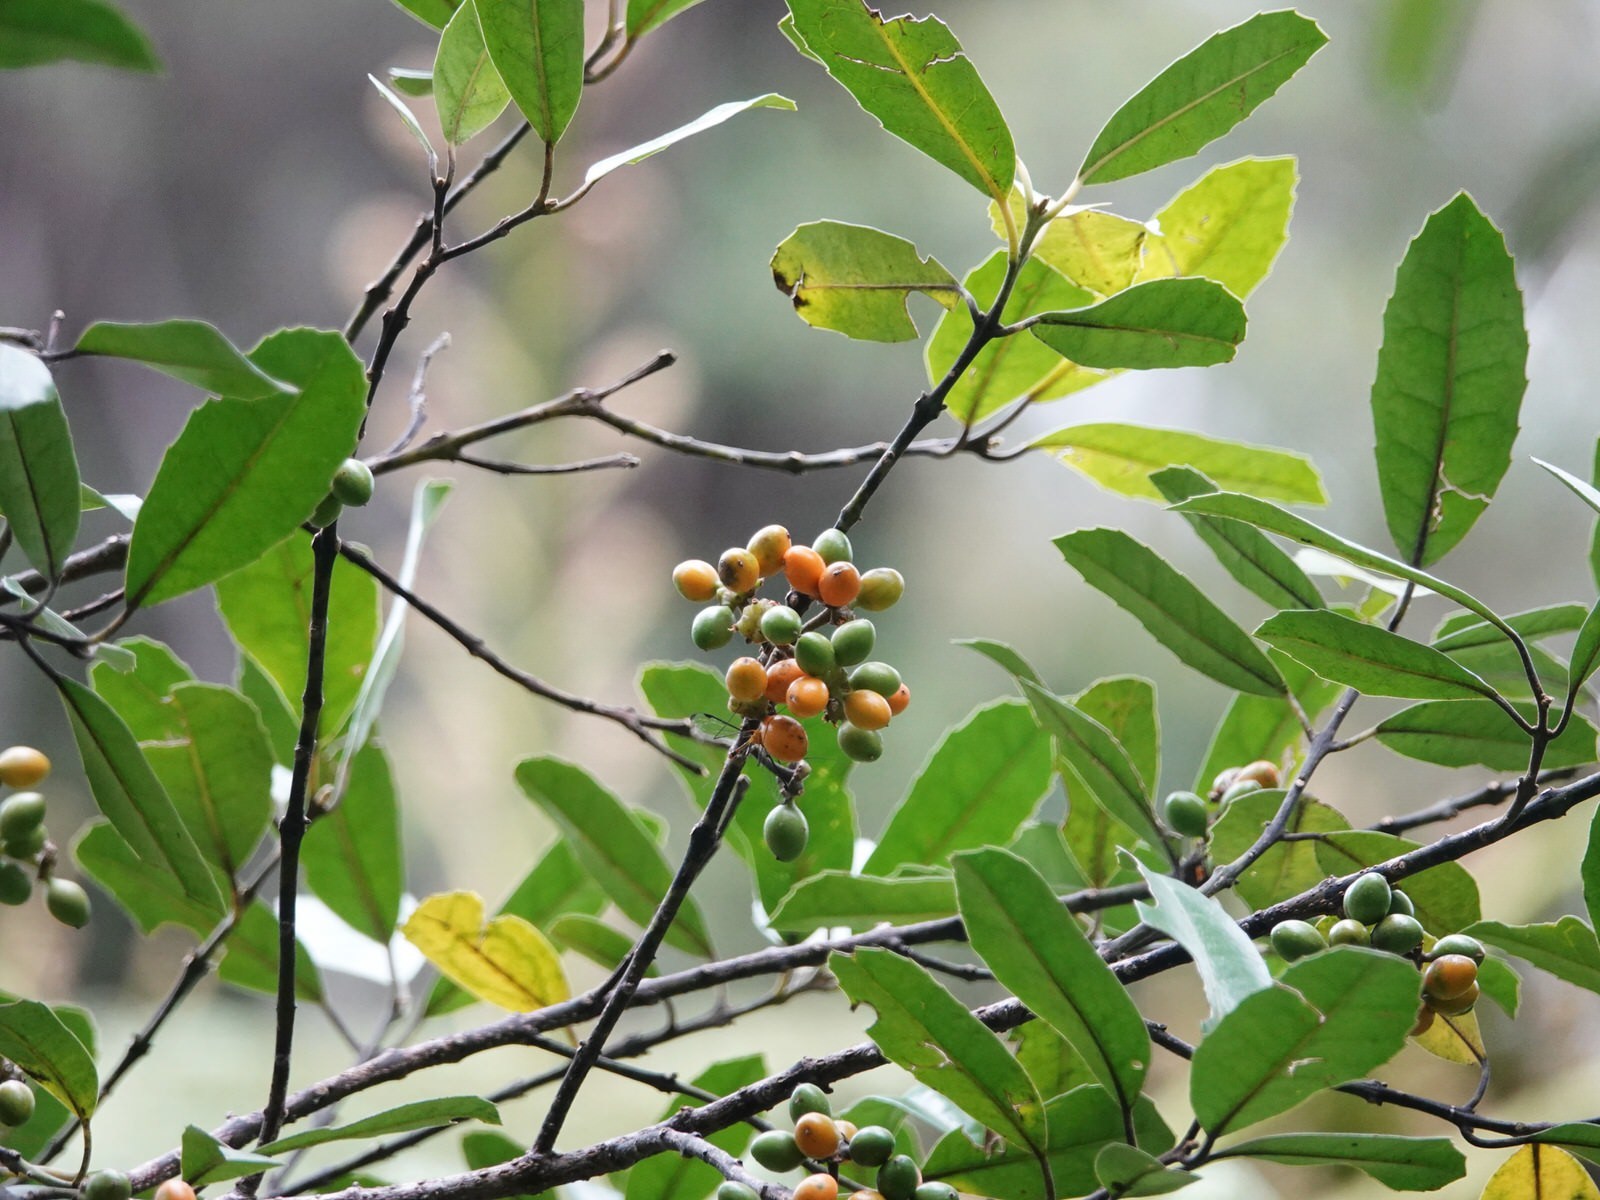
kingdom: Plantae
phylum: Tracheophyta
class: Magnoliopsida
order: Laurales
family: Monimiaceae
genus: Hedycarya
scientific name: Hedycarya arborea
